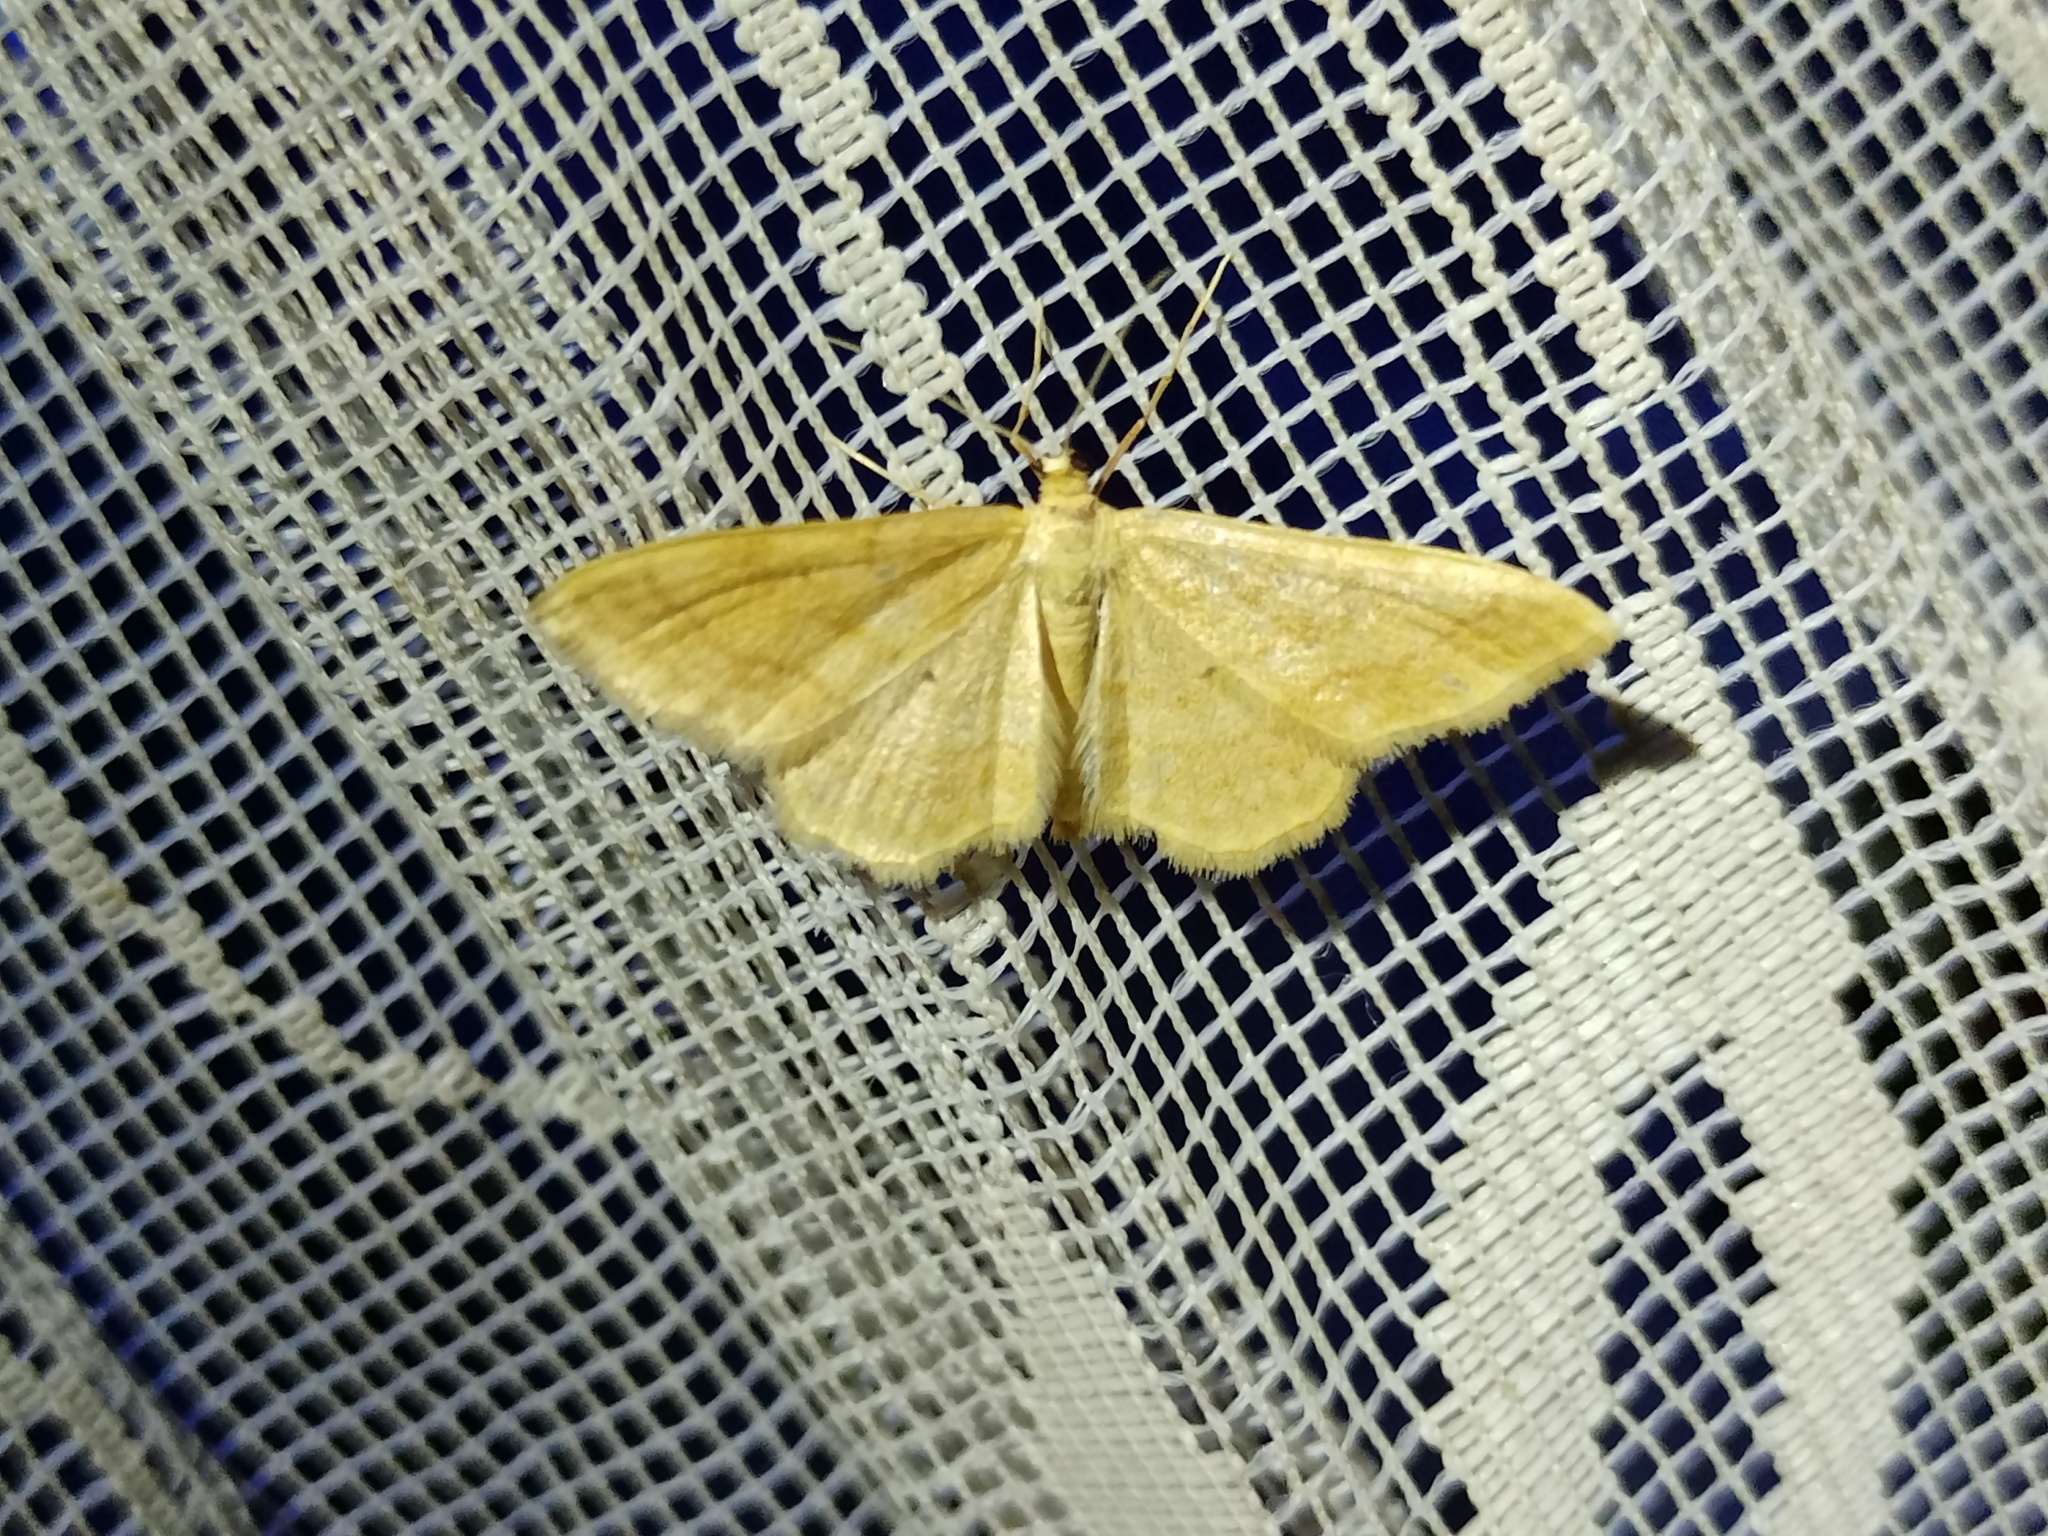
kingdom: Animalia
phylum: Arthropoda
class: Insecta
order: Lepidoptera
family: Geometridae
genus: Idaea
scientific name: Idaea rufaria
